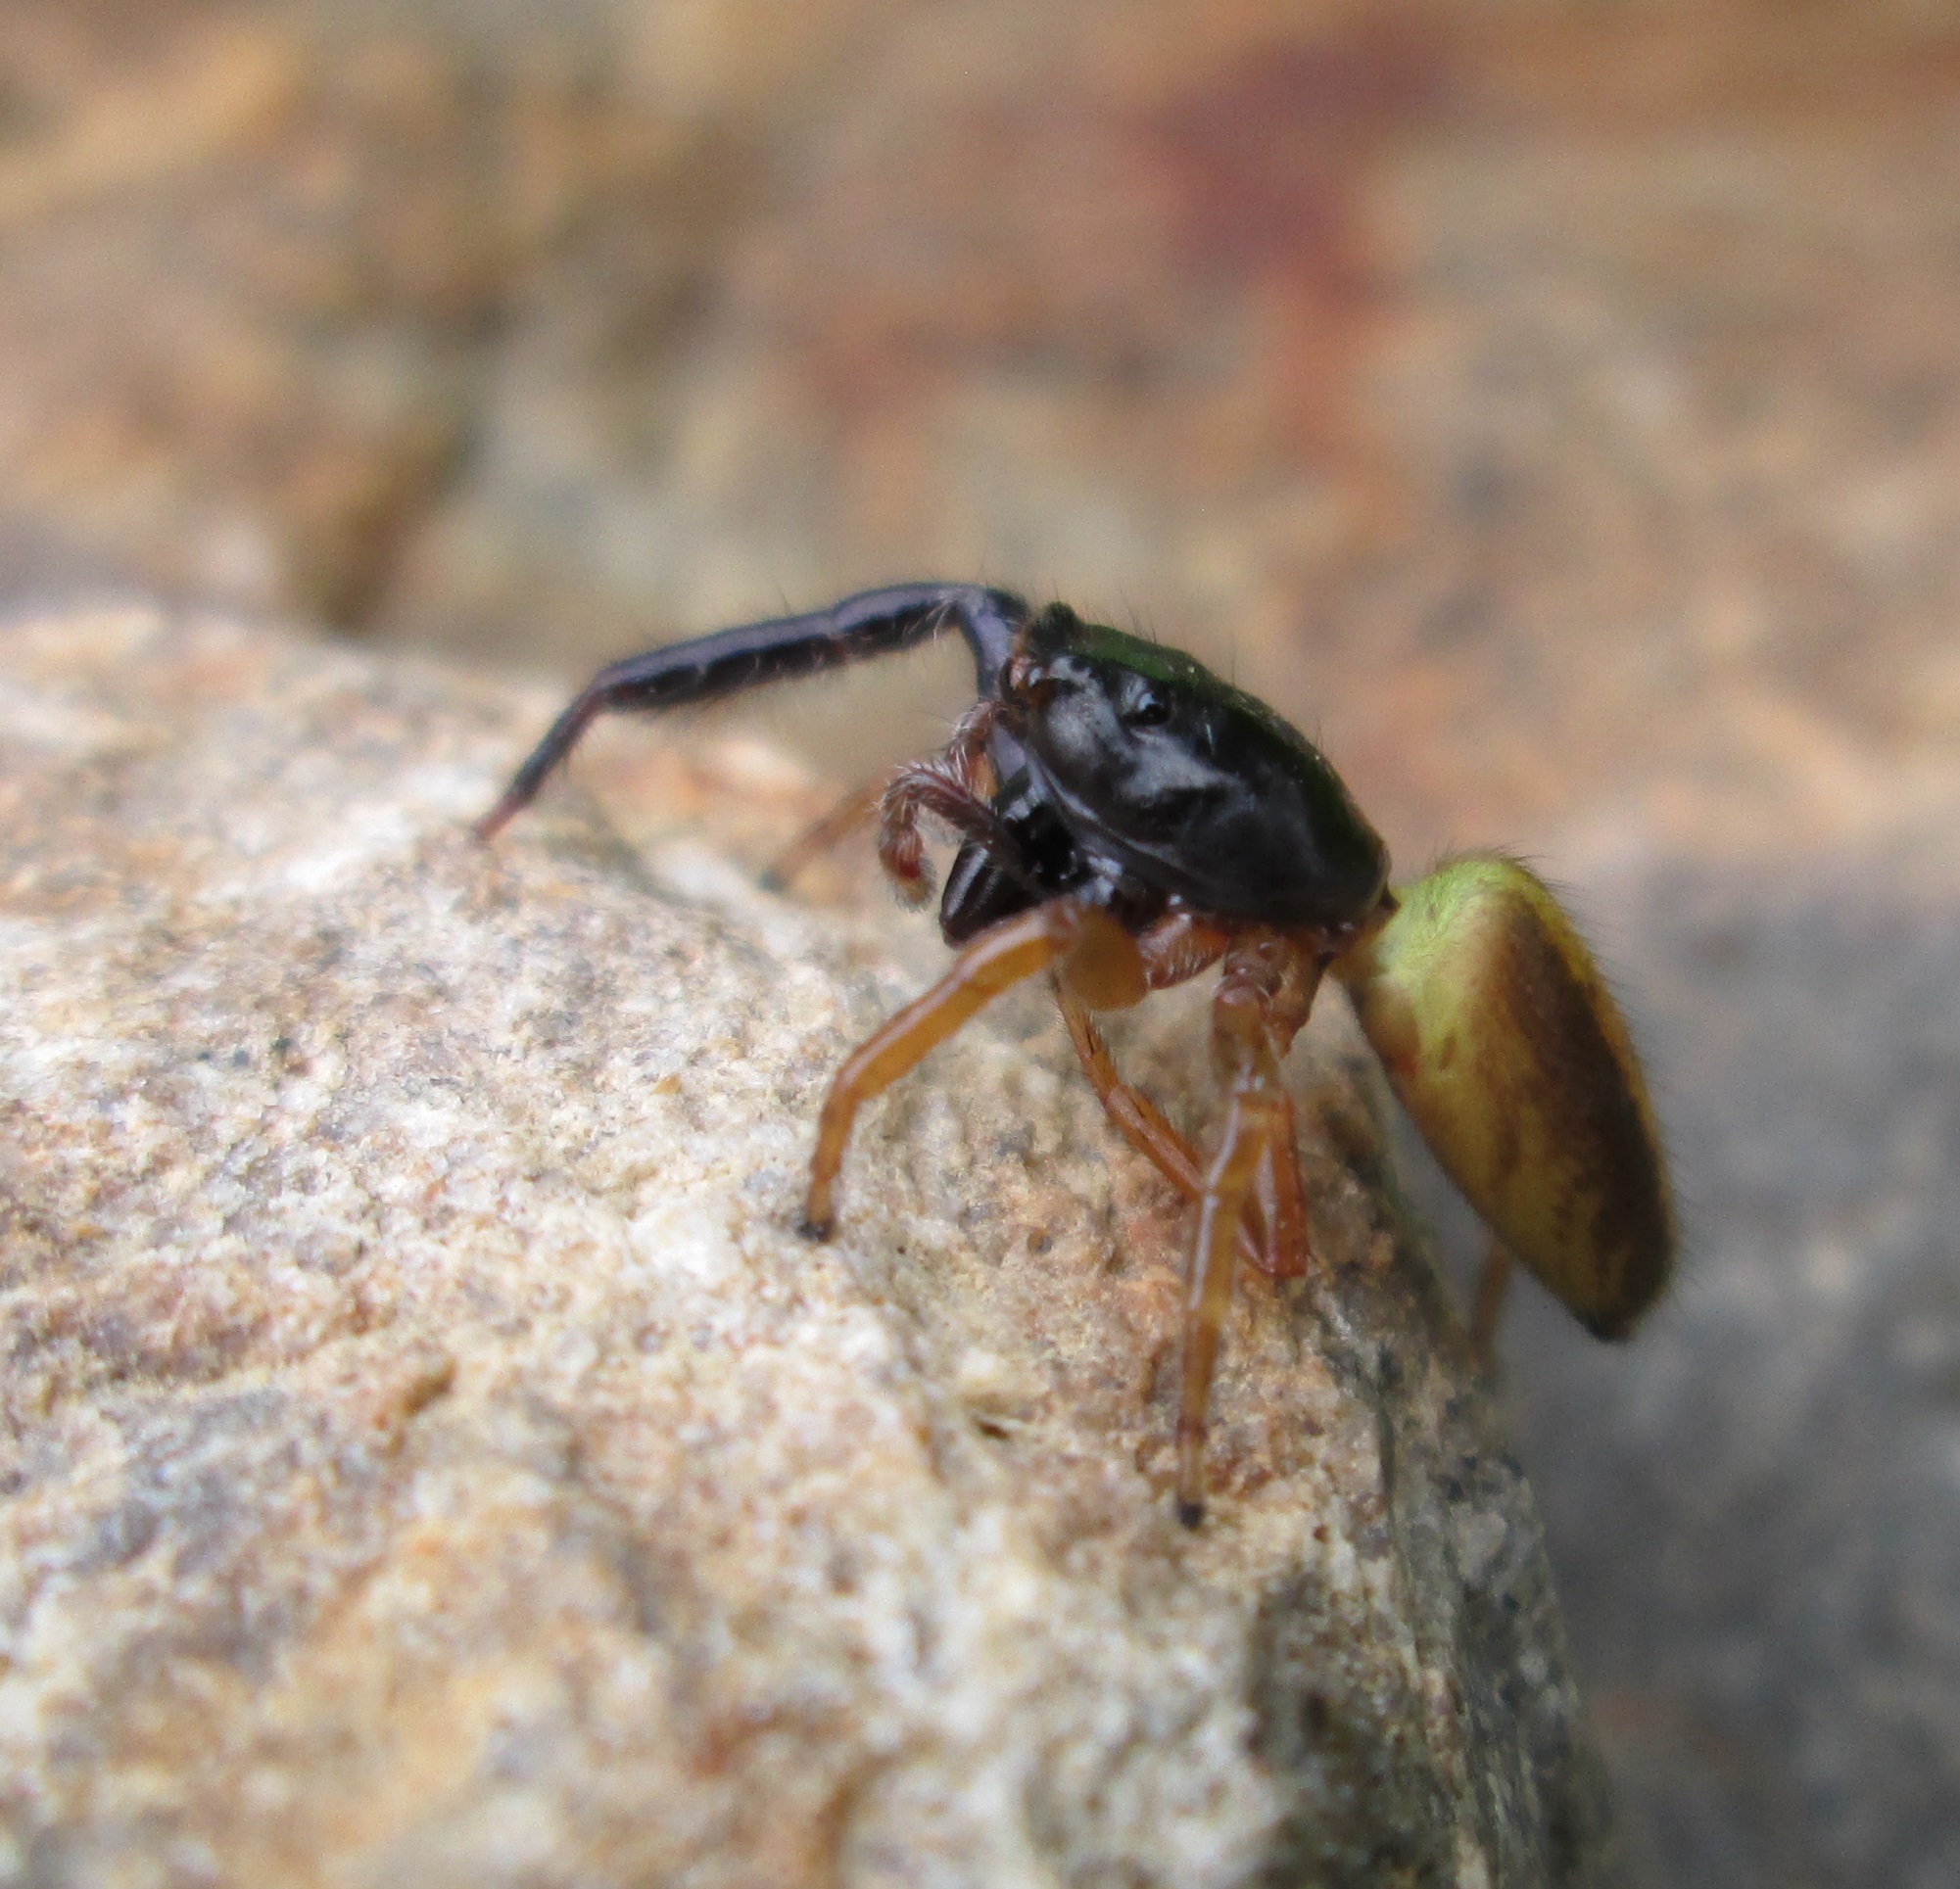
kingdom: Animalia
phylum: Arthropoda
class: Arachnida
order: Araneae
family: Salticidae
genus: Trite
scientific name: Trite planiceps
